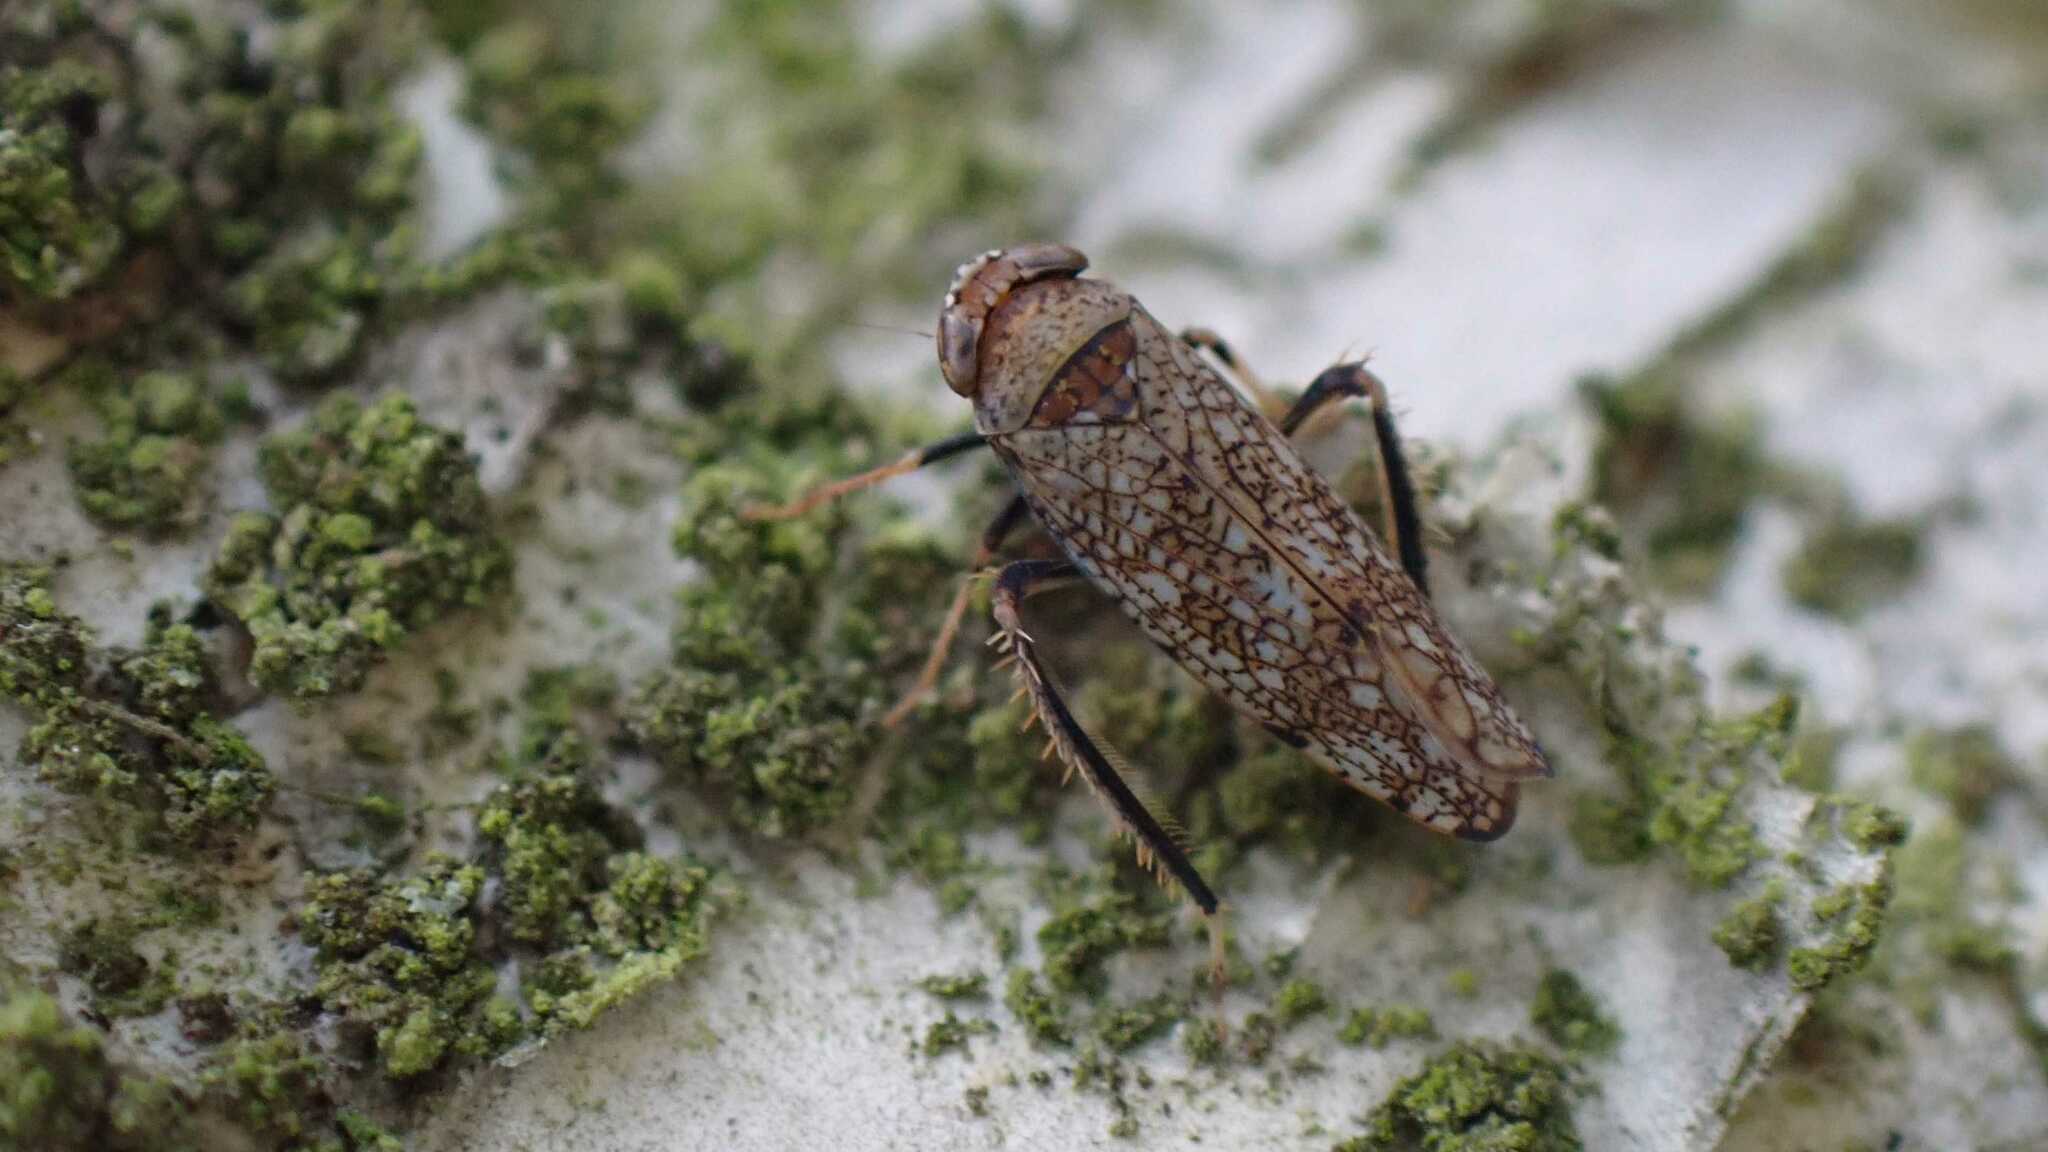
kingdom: Animalia
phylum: Arthropoda
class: Insecta
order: Hemiptera
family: Cicadellidae
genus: Orientus
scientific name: Orientus ishidae
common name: Japanese leafhopper
